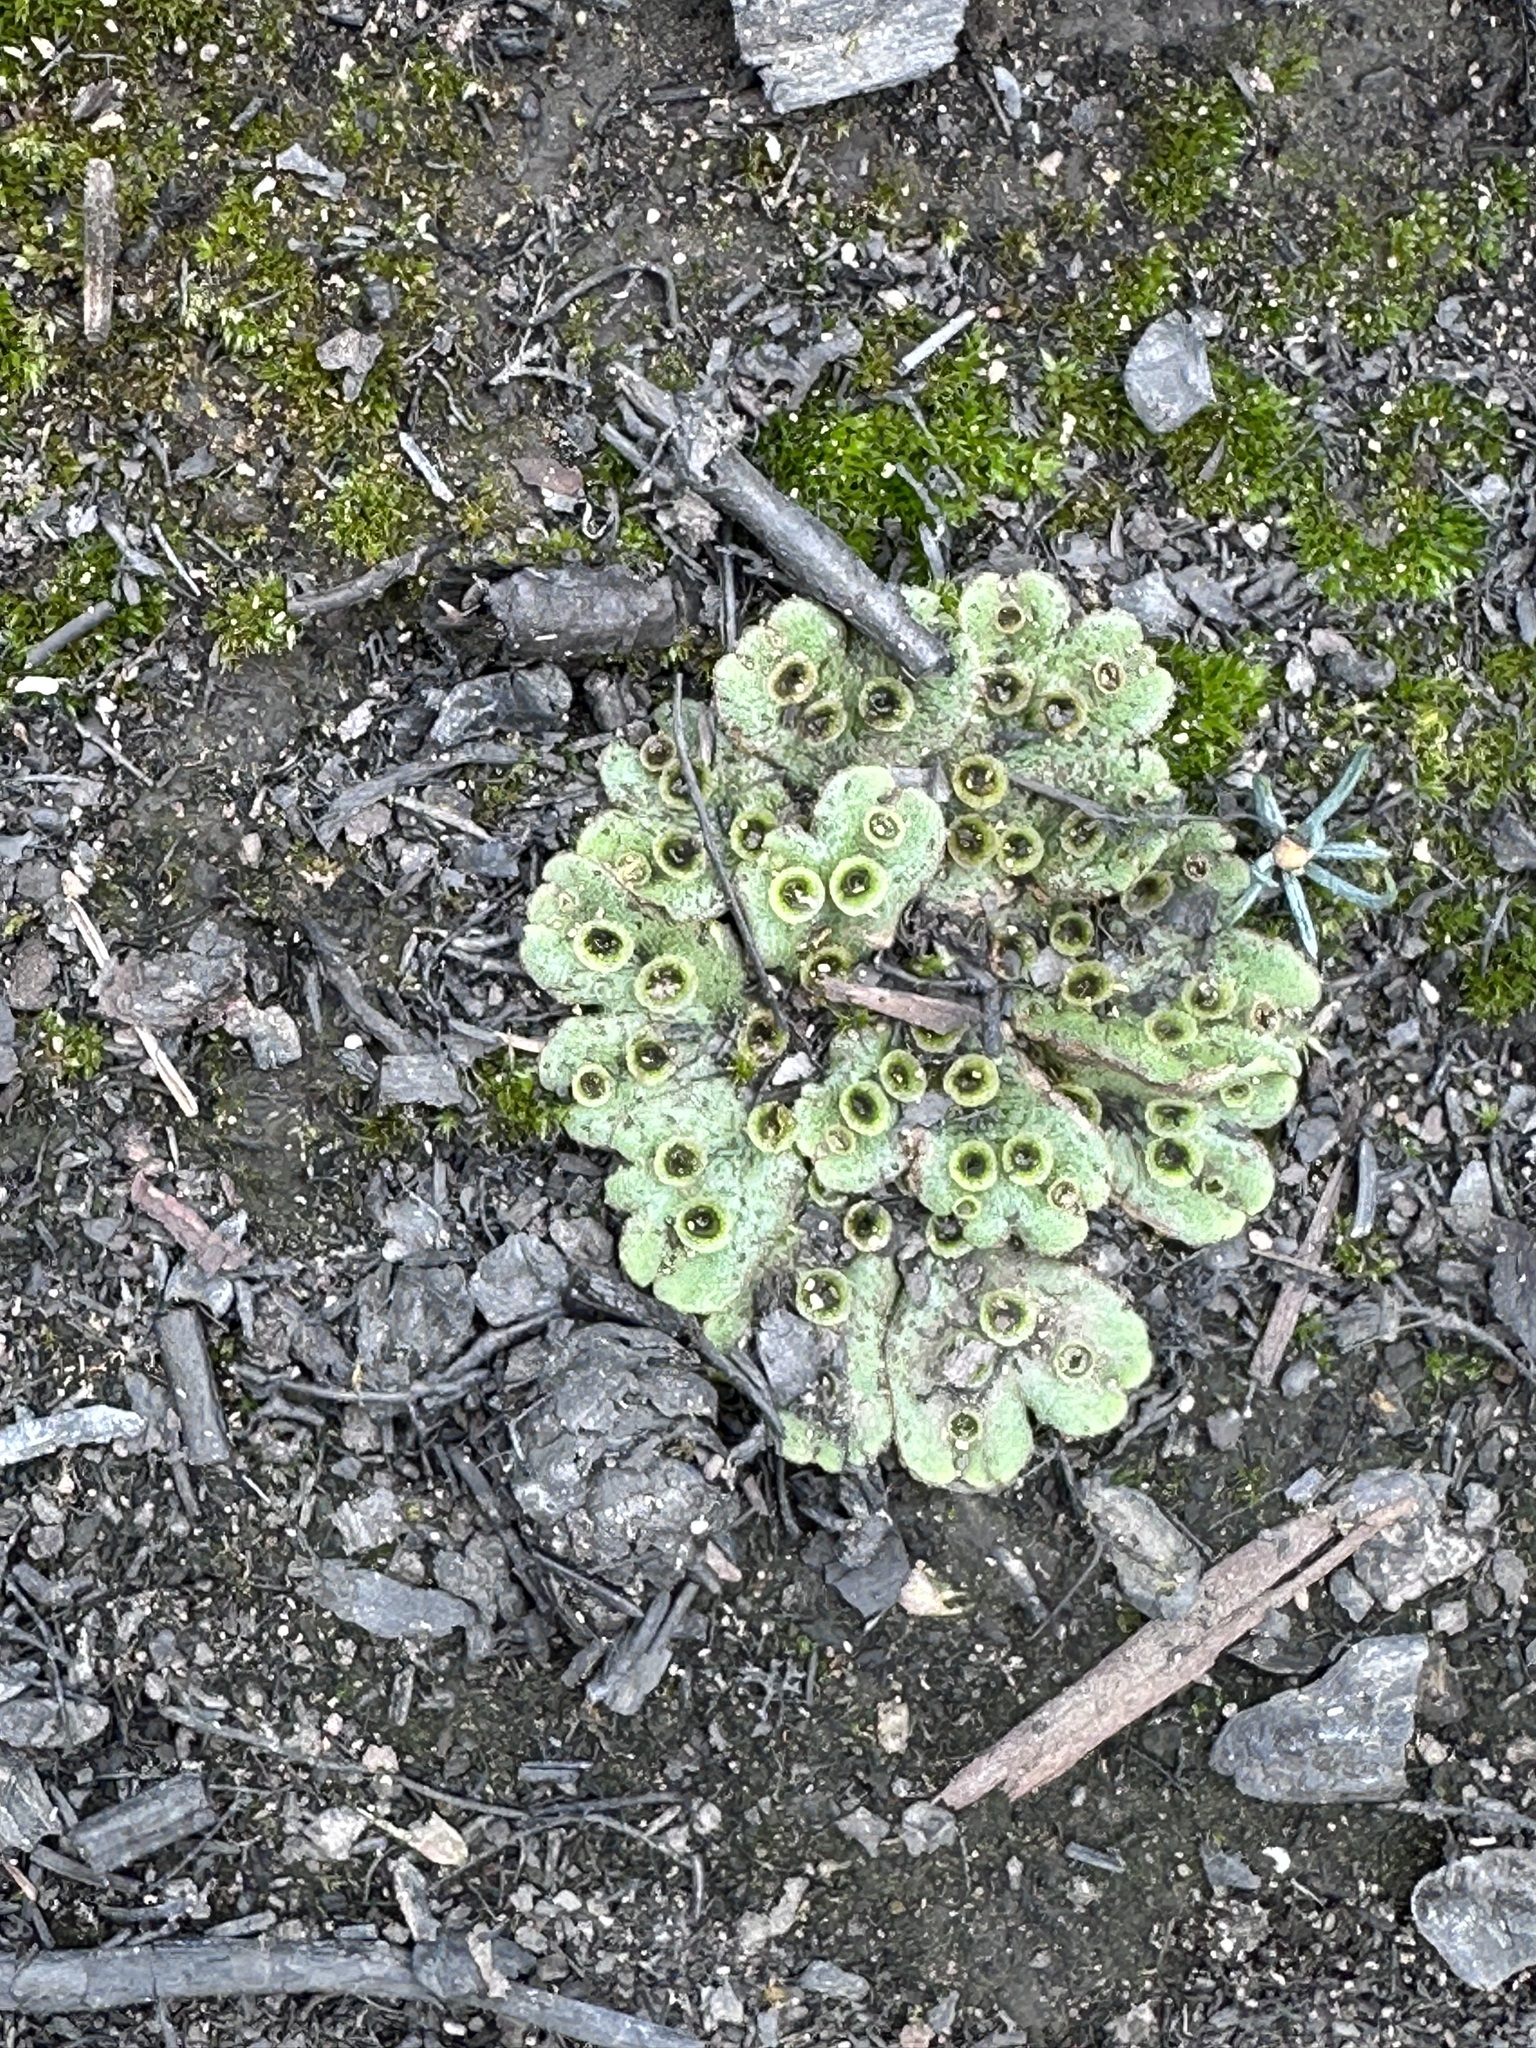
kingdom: Plantae
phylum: Marchantiophyta
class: Marchantiopsida
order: Marchantiales
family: Marchantiaceae
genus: Marchantia
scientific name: Marchantia polymorpha
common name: Common liverwort
